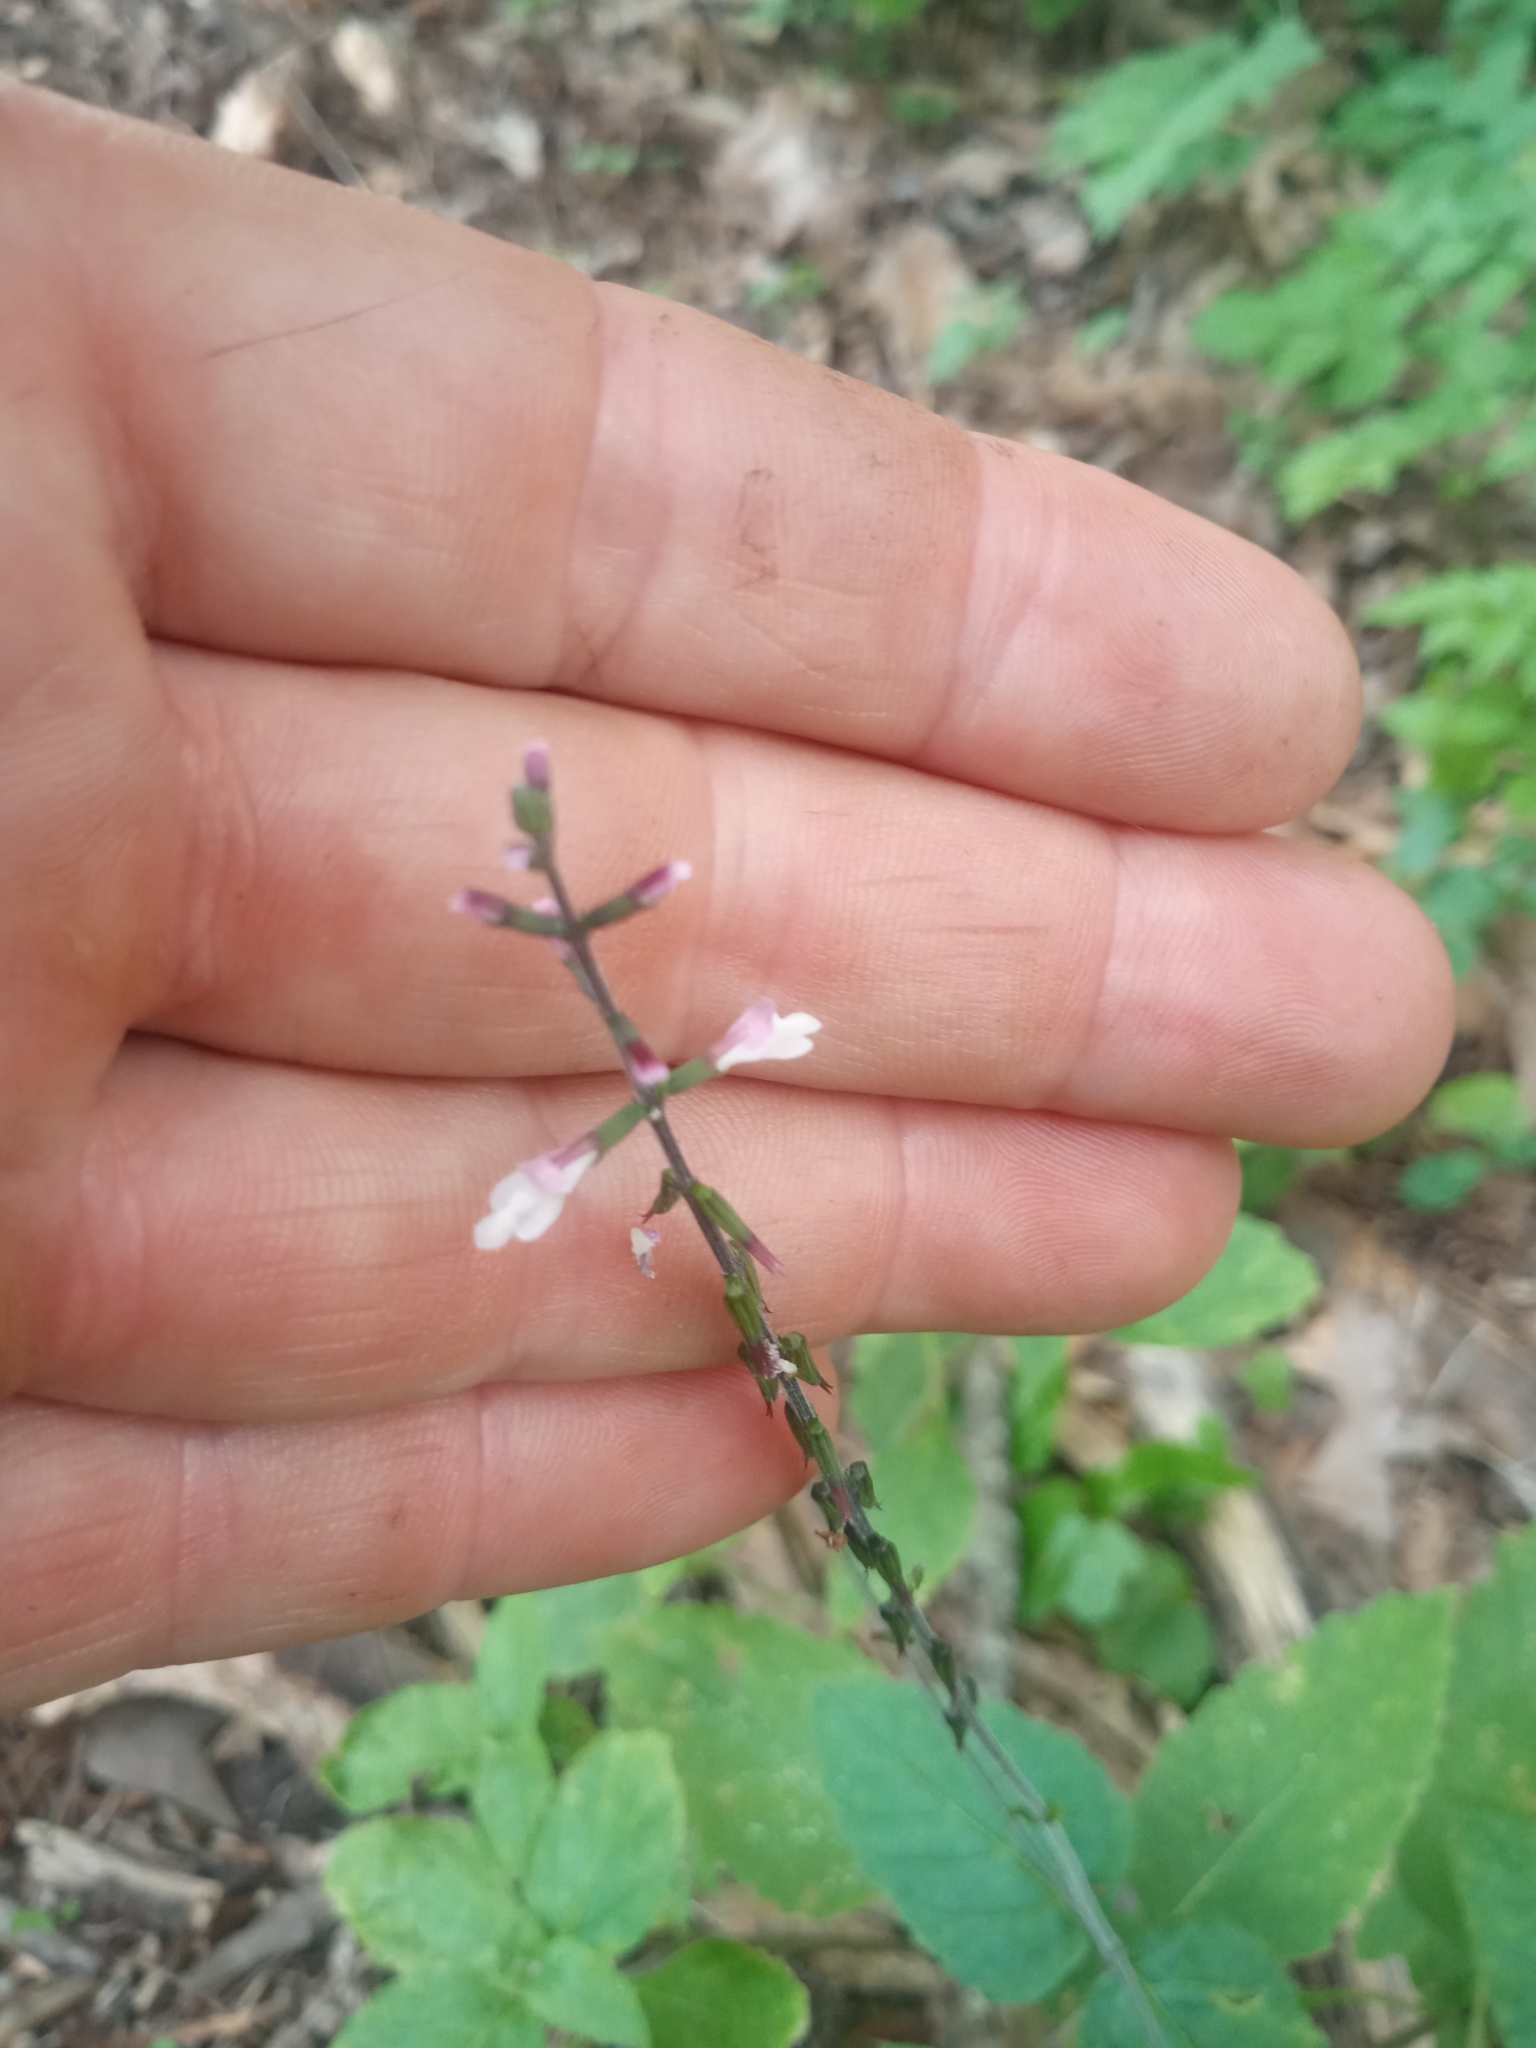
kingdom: Plantae
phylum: Tracheophyta
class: Magnoliopsida
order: Lamiales
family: Phrymaceae
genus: Phryma
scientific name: Phryma leptostachya
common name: American lopseed
